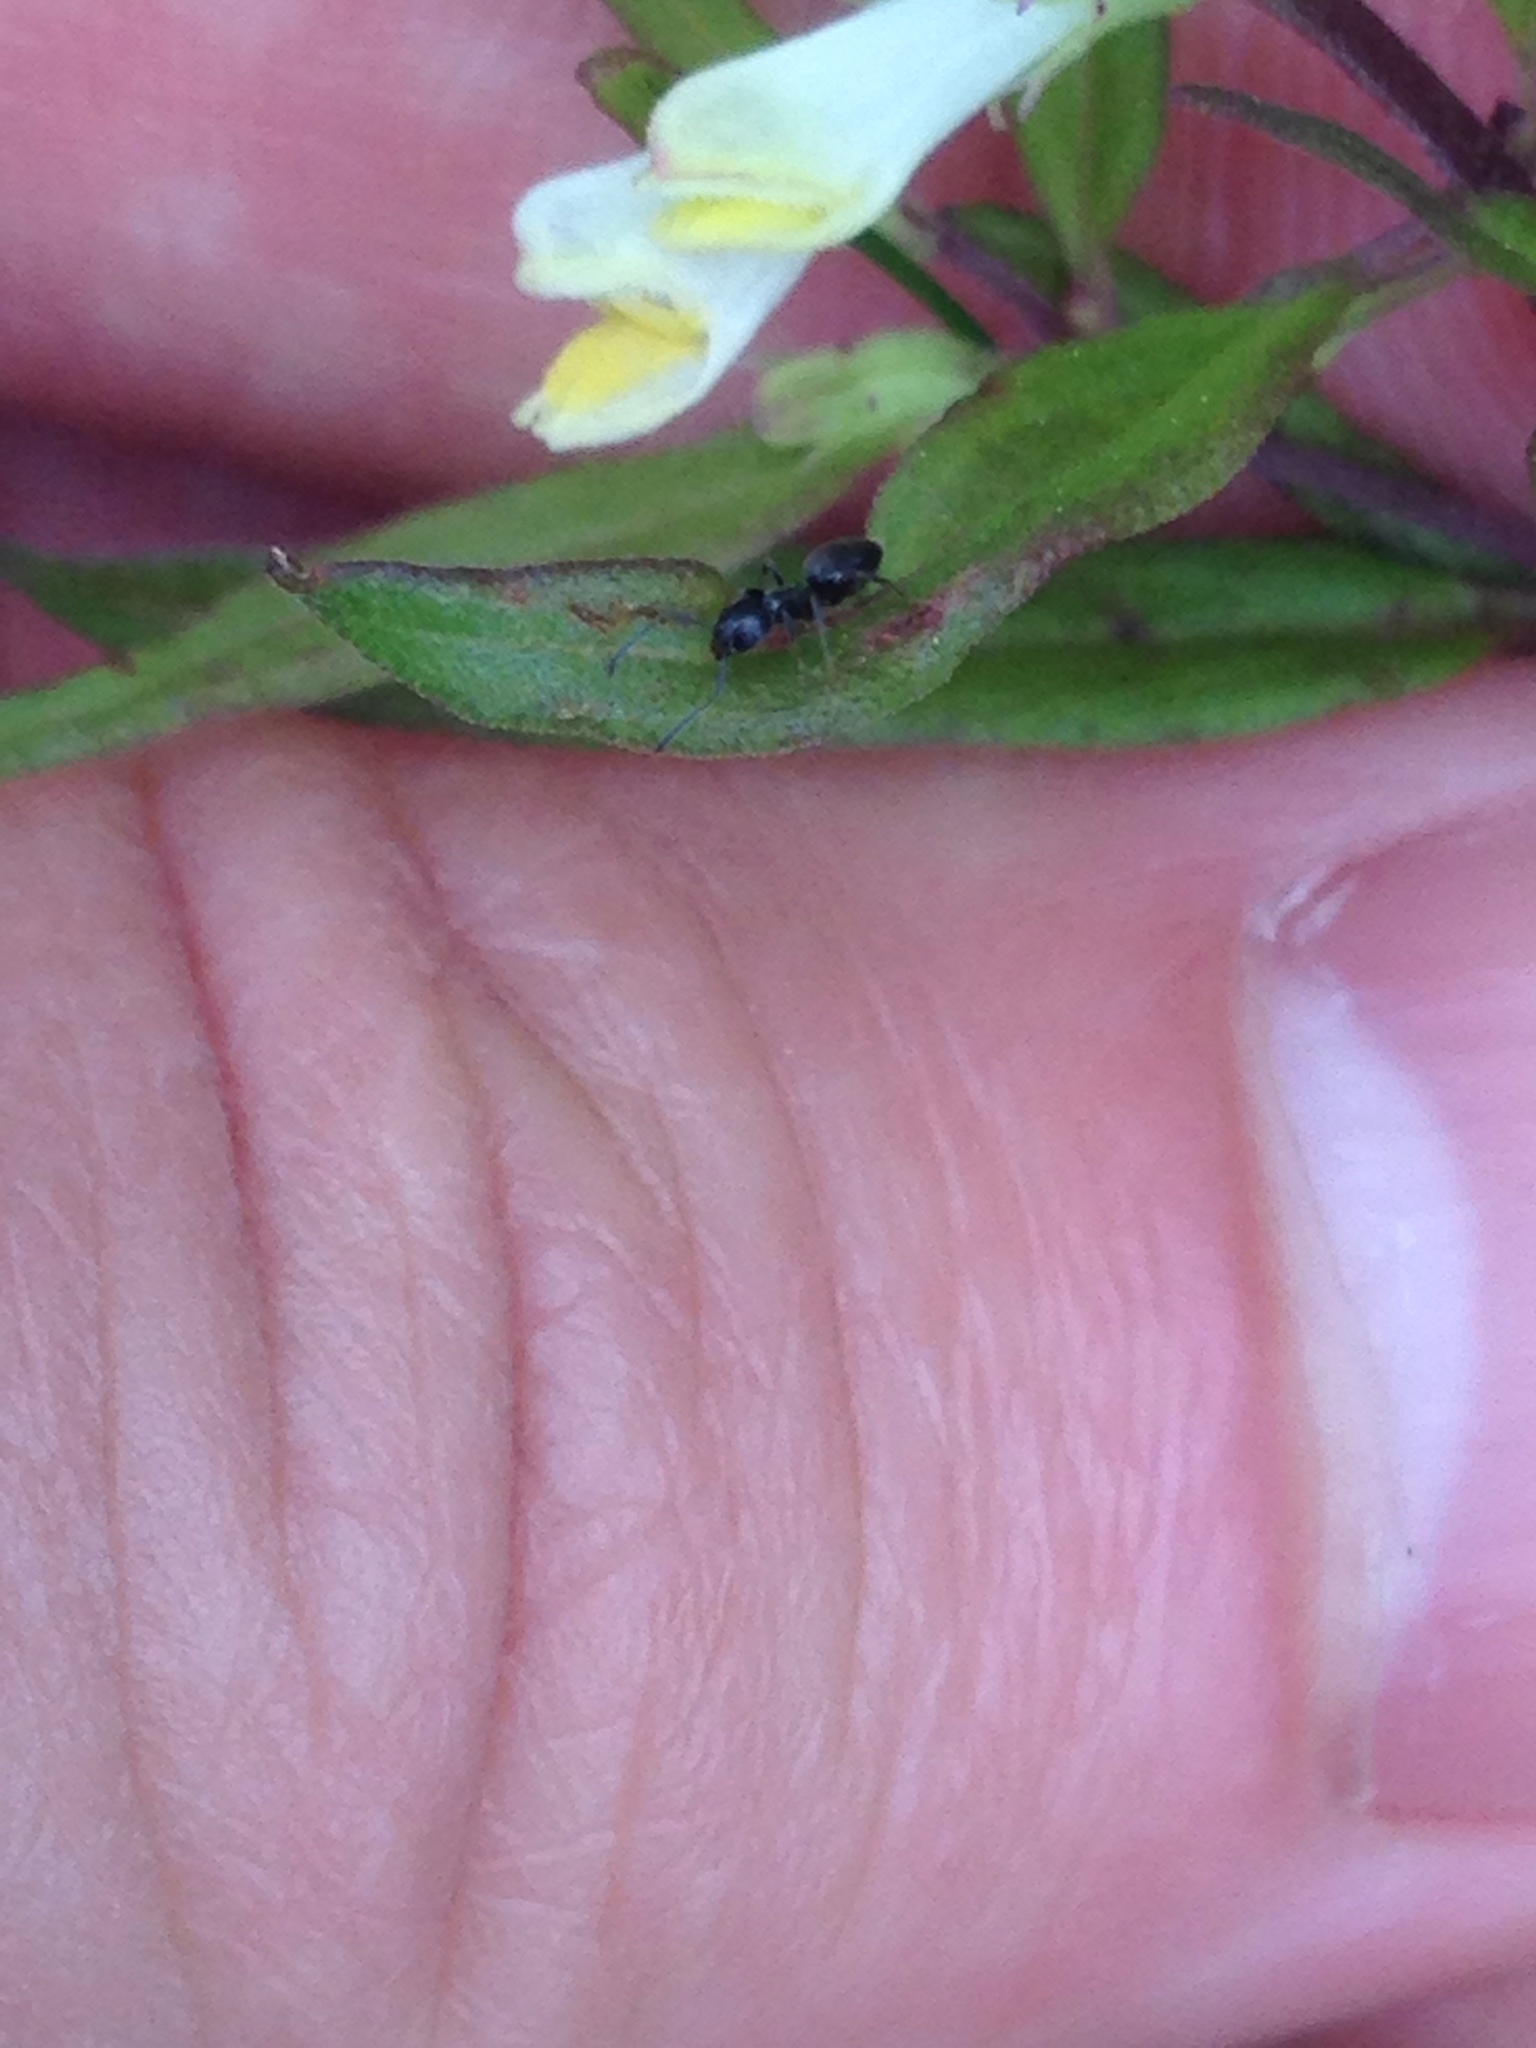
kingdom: Plantae
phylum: Tracheophyta
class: Magnoliopsida
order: Lamiales
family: Orobanchaceae
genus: Melampyrum
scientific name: Melampyrum lineare
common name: American cow-wheat
